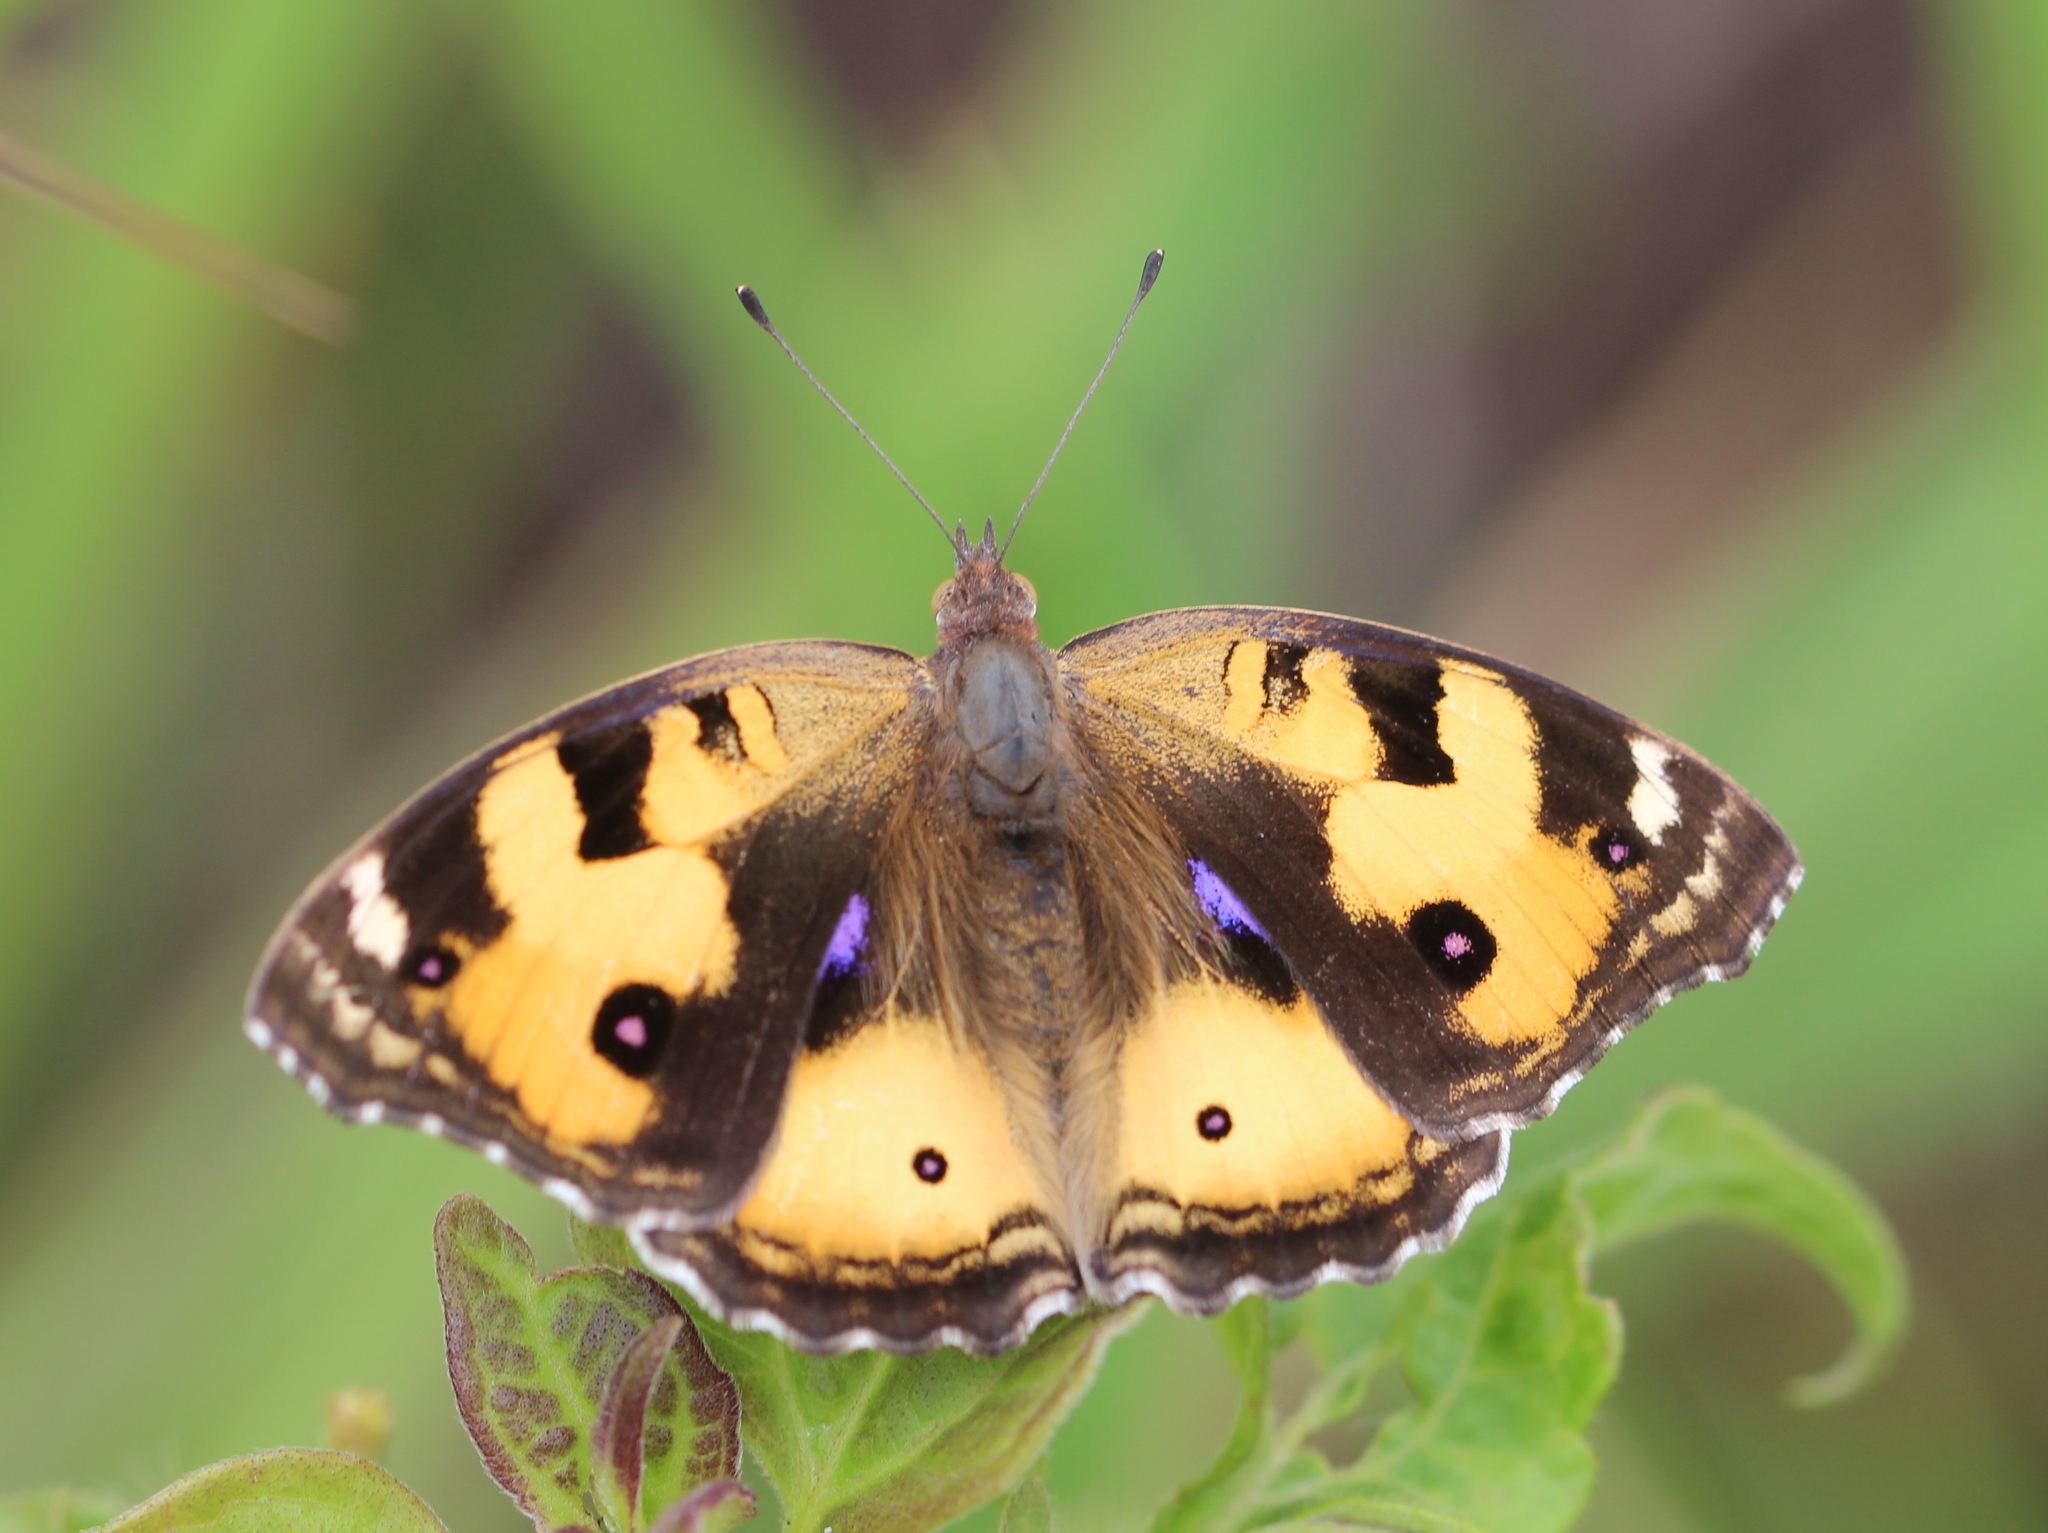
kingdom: Animalia
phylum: Arthropoda
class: Insecta
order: Lepidoptera
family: Nymphalidae
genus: Junonia
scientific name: Junonia hierta
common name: Yellow pansy
